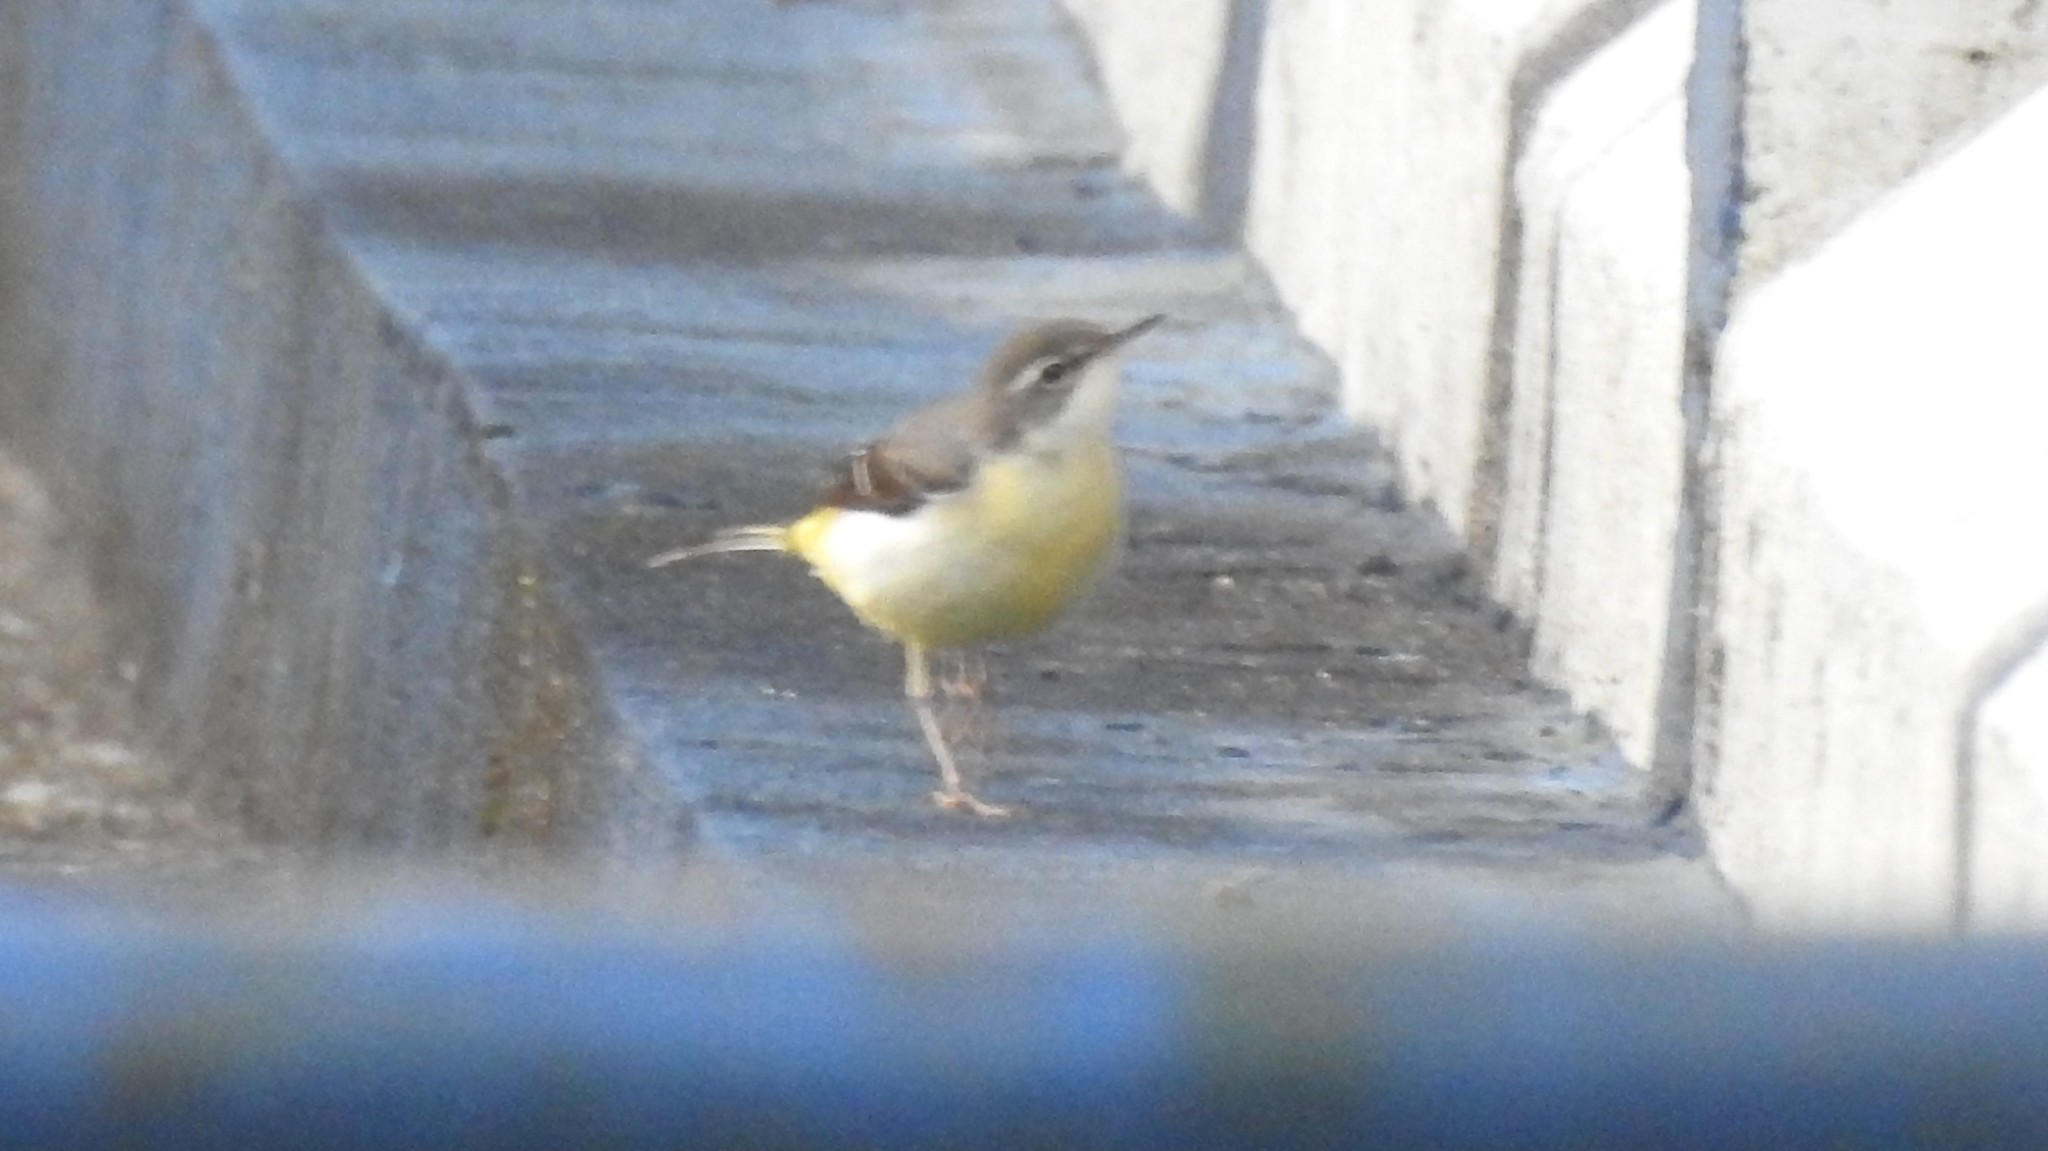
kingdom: Animalia
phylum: Chordata
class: Aves
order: Passeriformes
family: Motacillidae
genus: Motacilla
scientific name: Motacilla cinerea
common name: Grey wagtail
